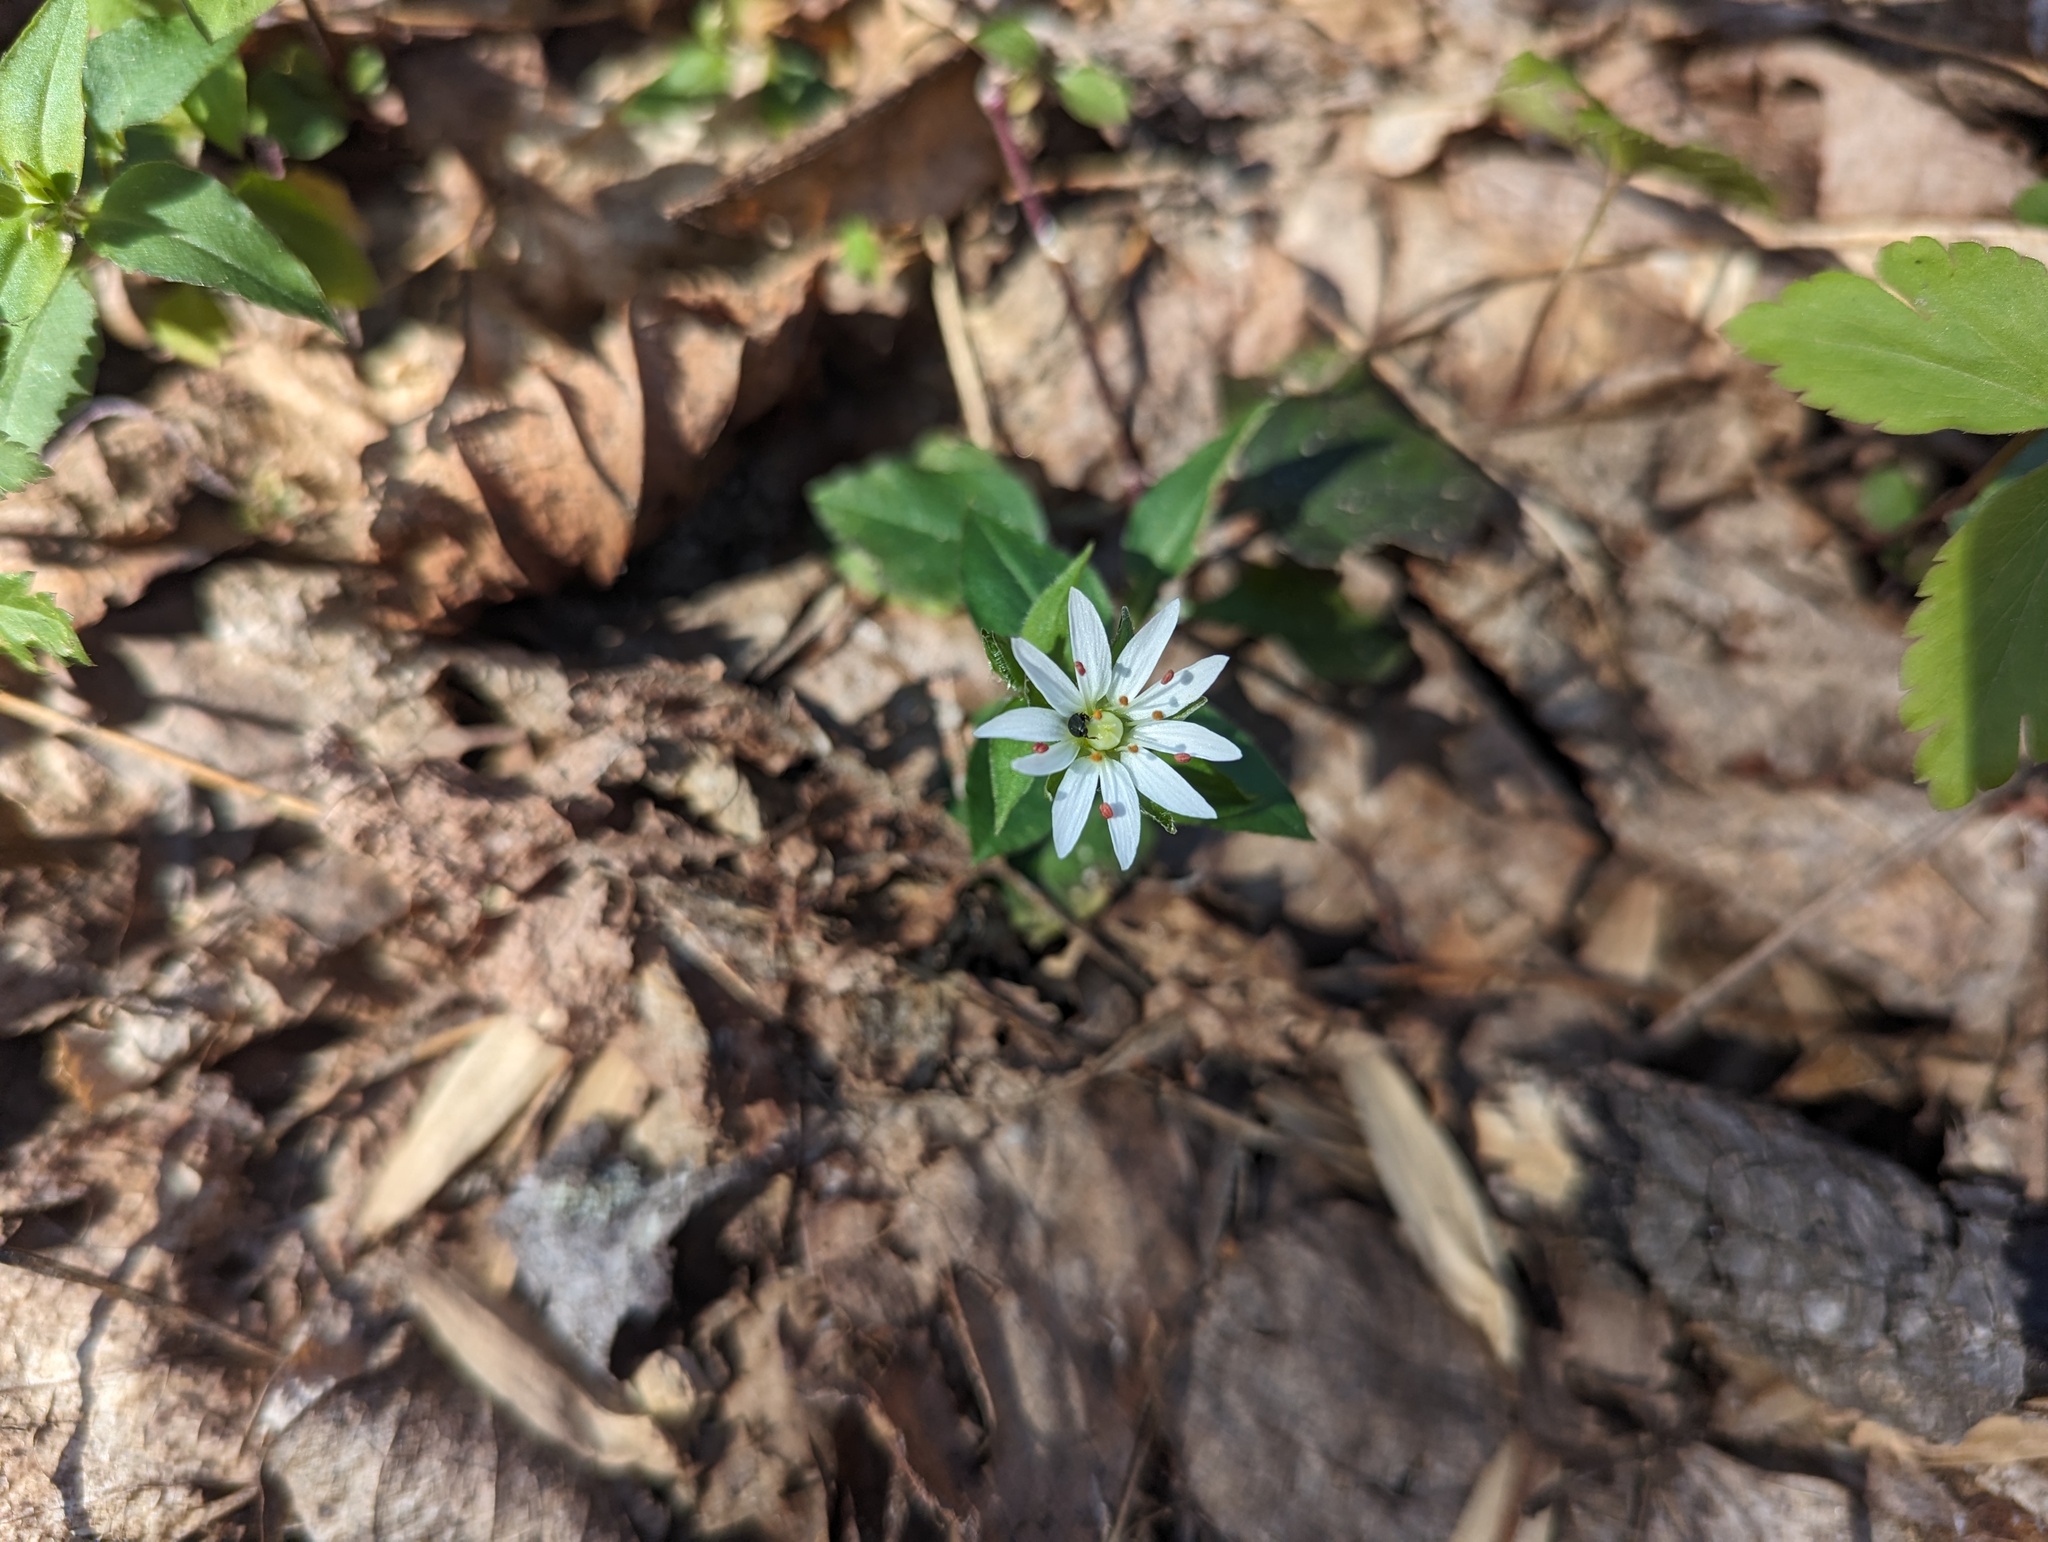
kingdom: Plantae
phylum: Tracheophyta
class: Magnoliopsida
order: Caryophyllales
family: Caryophyllaceae
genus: Stellaria
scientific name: Stellaria pubera
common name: Star chickweed
